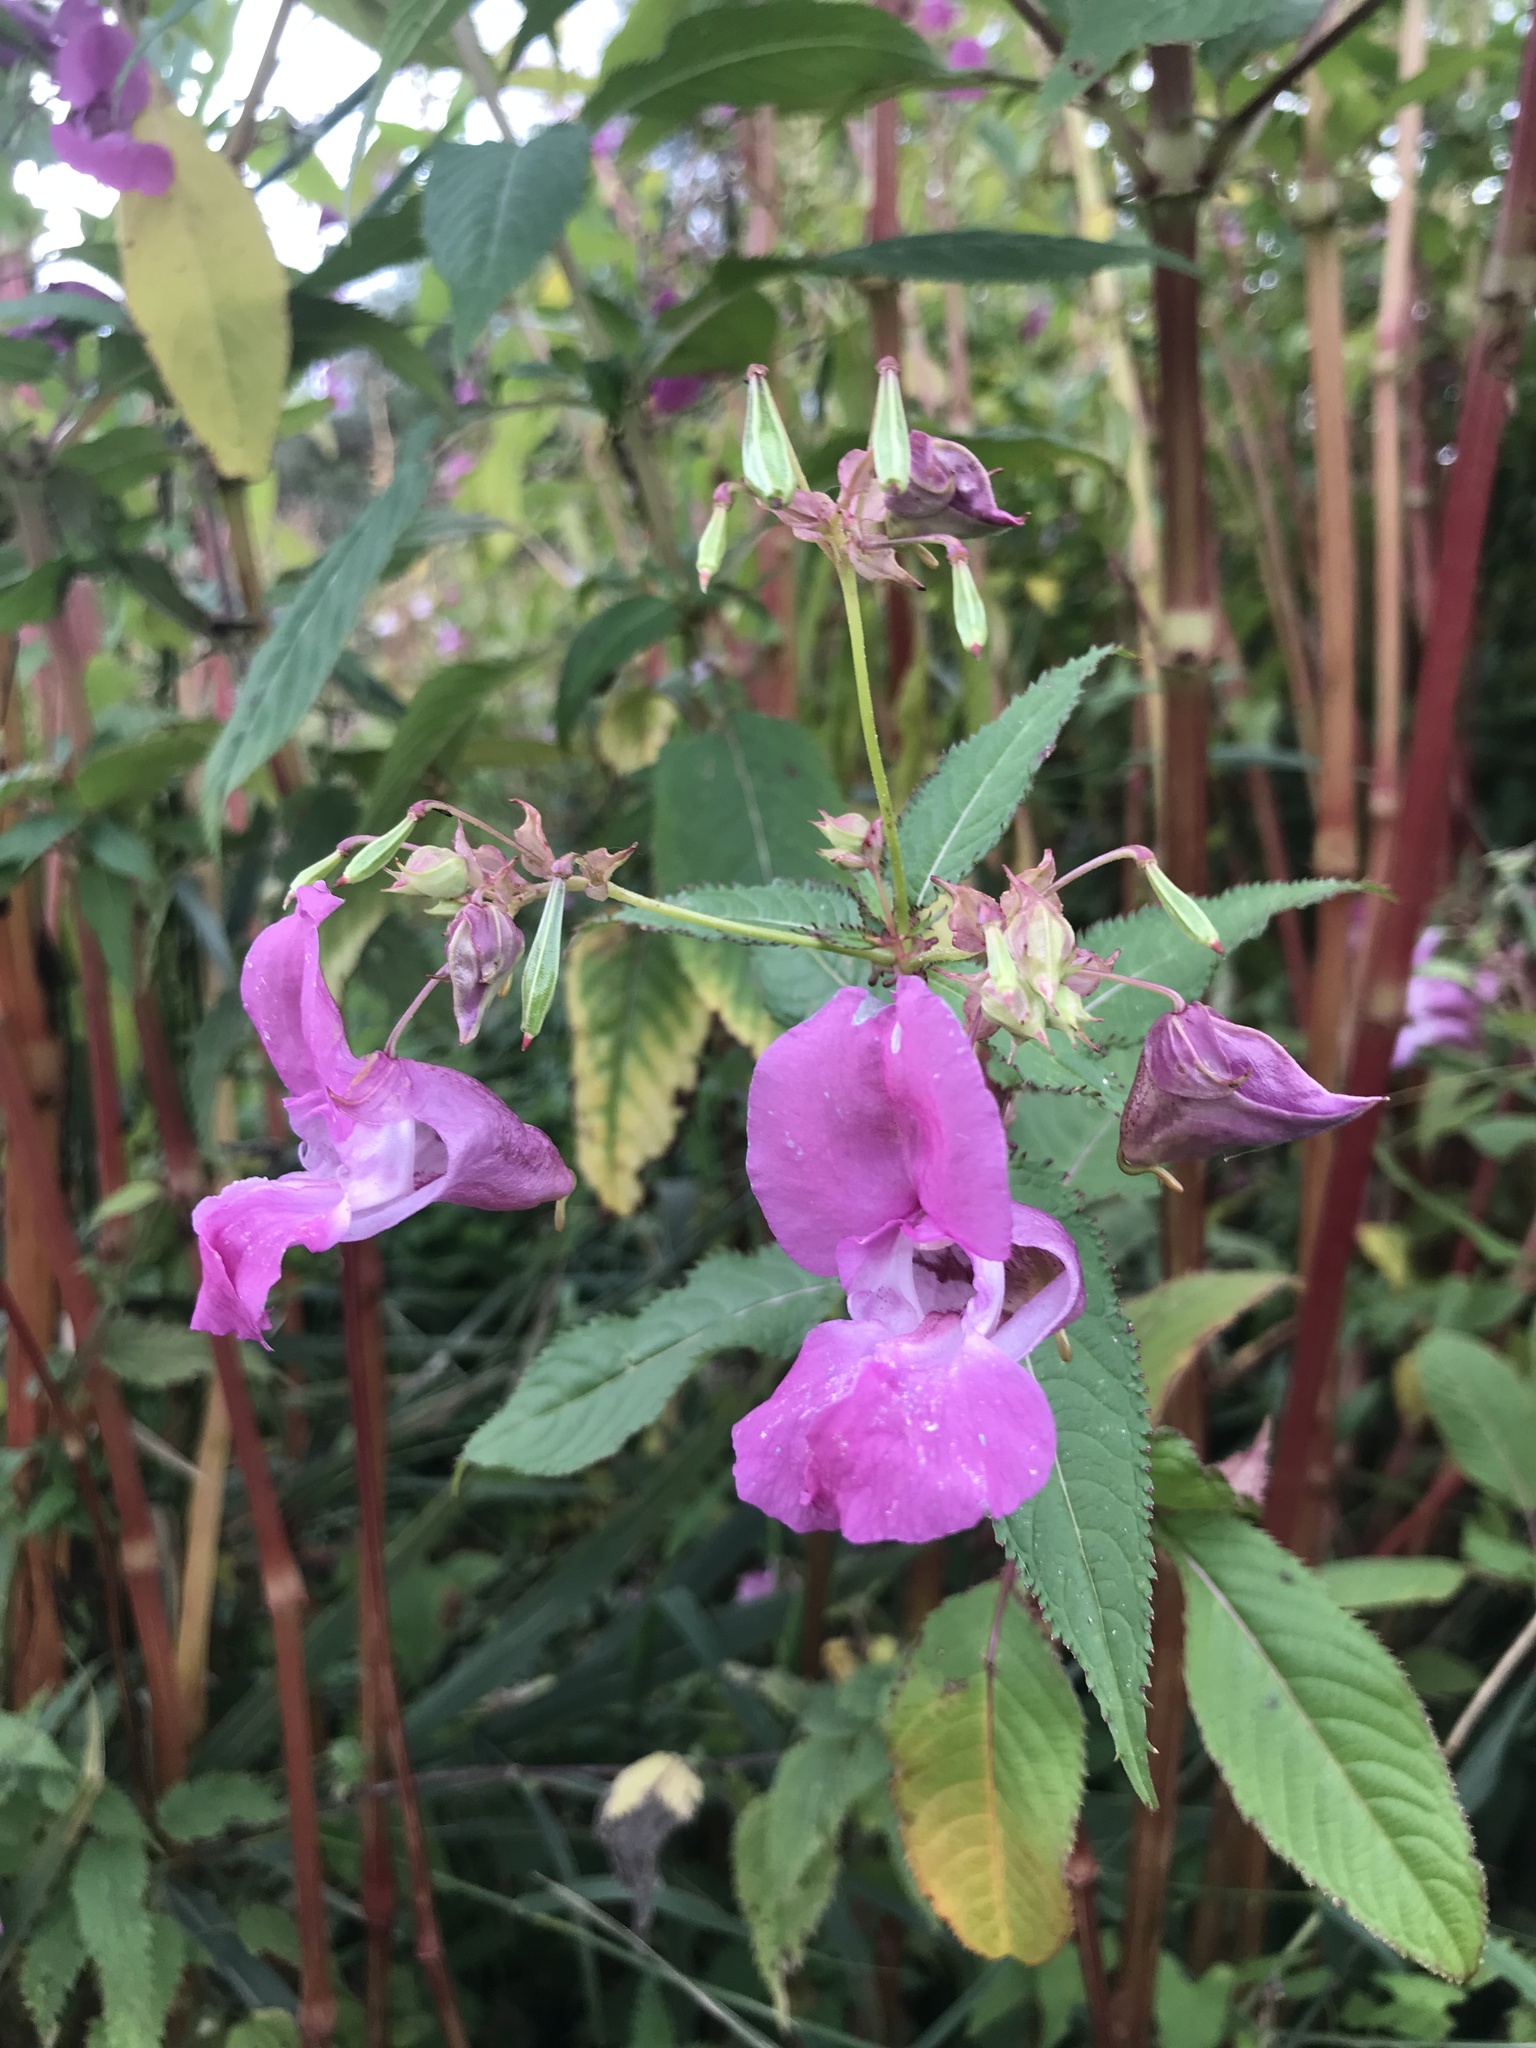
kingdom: Plantae
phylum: Tracheophyta
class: Magnoliopsida
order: Ericales
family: Balsaminaceae
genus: Impatiens
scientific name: Impatiens glandulifera
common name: Himalayan balsam
